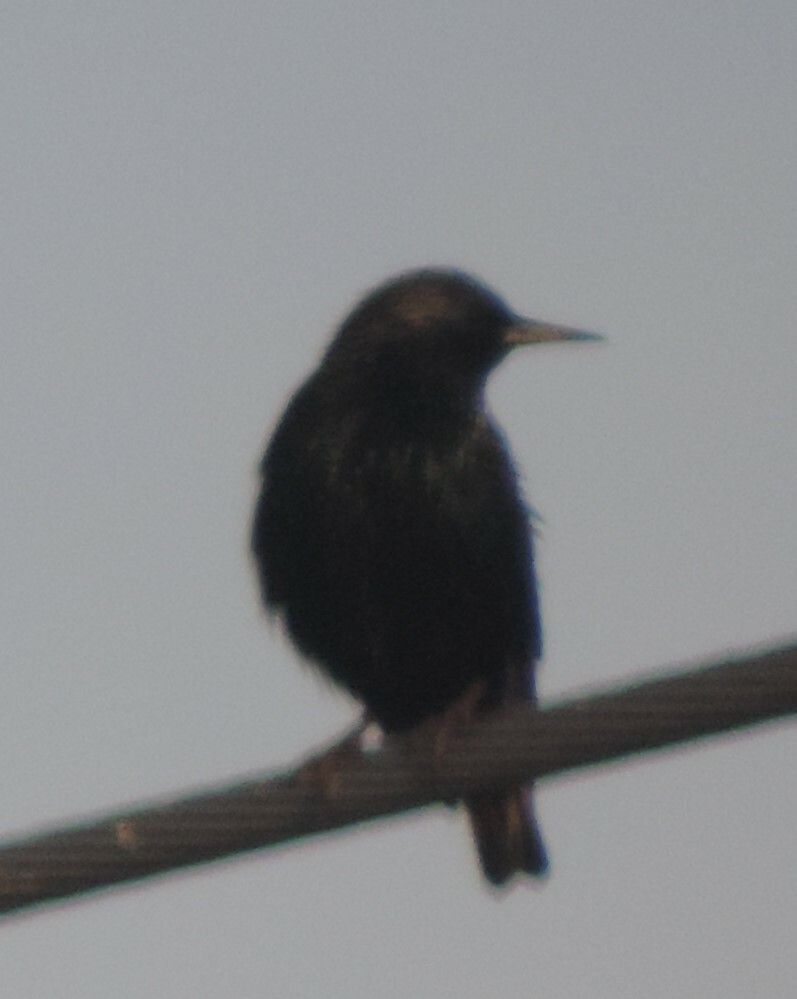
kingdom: Animalia
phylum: Chordata
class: Aves
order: Passeriformes
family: Sturnidae
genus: Sturnus
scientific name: Sturnus vulgaris
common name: Common starling
